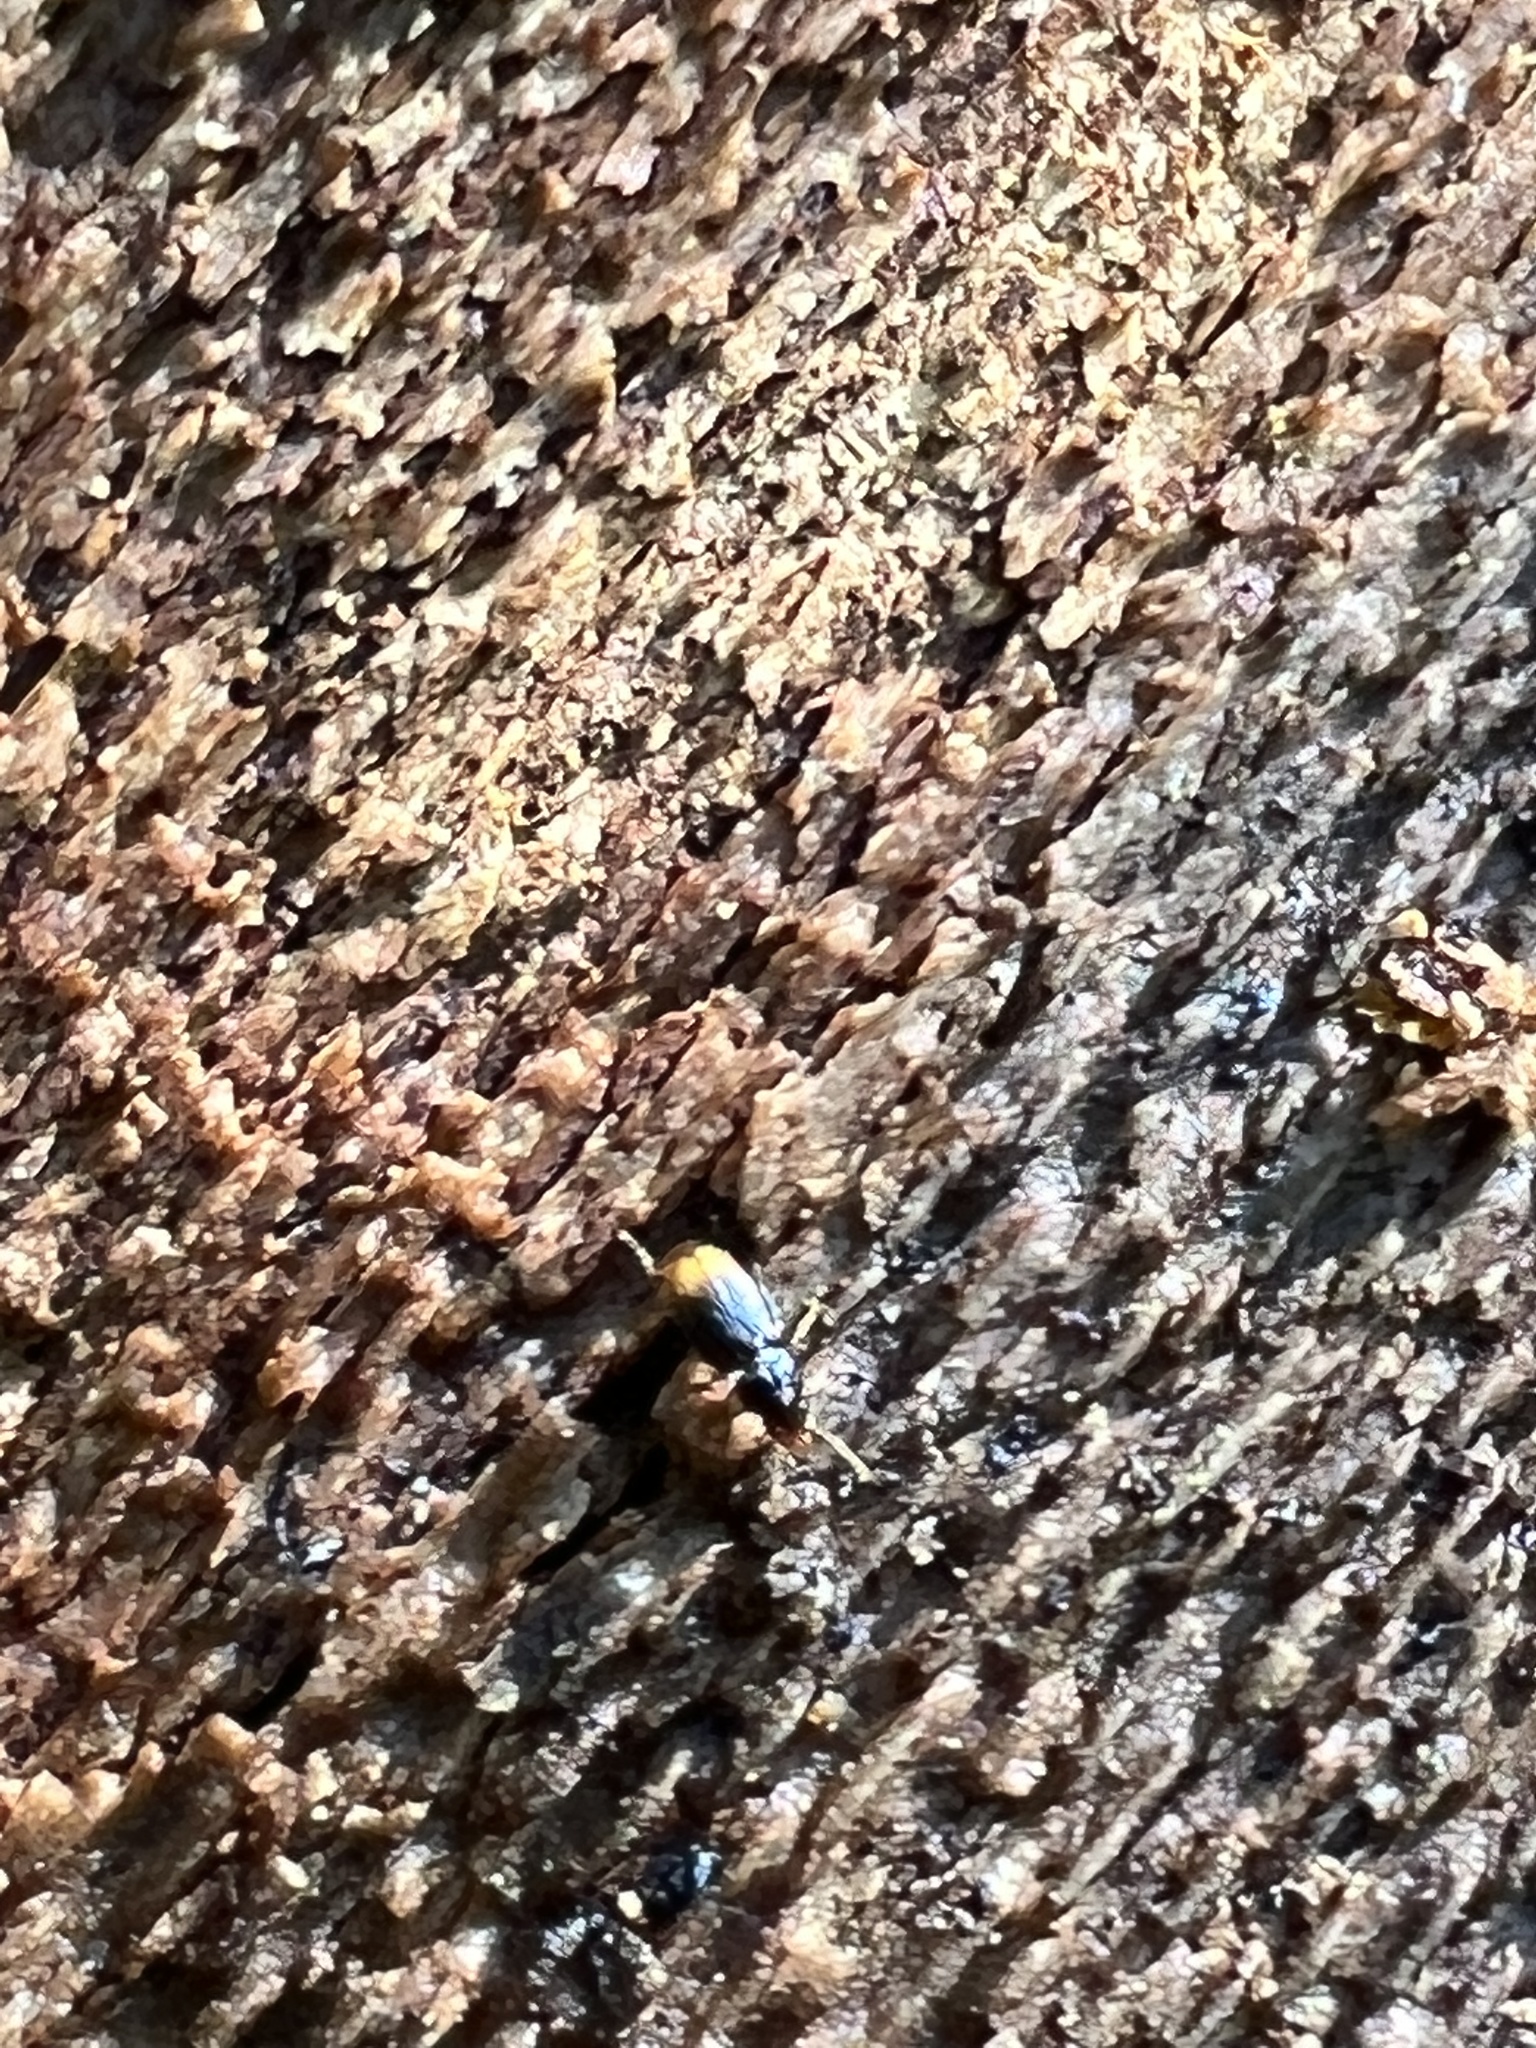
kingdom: Animalia
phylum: Arthropoda
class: Insecta
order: Coleoptera
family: Carabidae
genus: Mioptachys
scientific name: Mioptachys flavicauda
